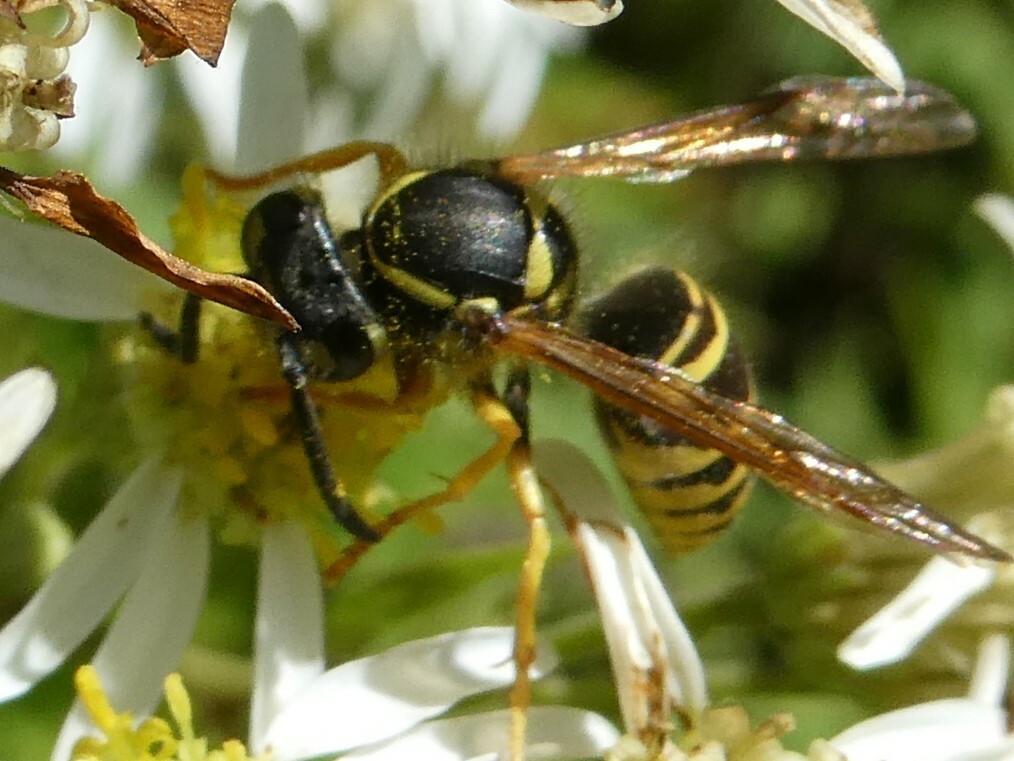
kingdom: Animalia
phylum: Arthropoda
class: Insecta
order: Hymenoptera
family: Vespidae
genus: Vespula
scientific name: Vespula maculifrons
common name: Eastern yellowjacket
